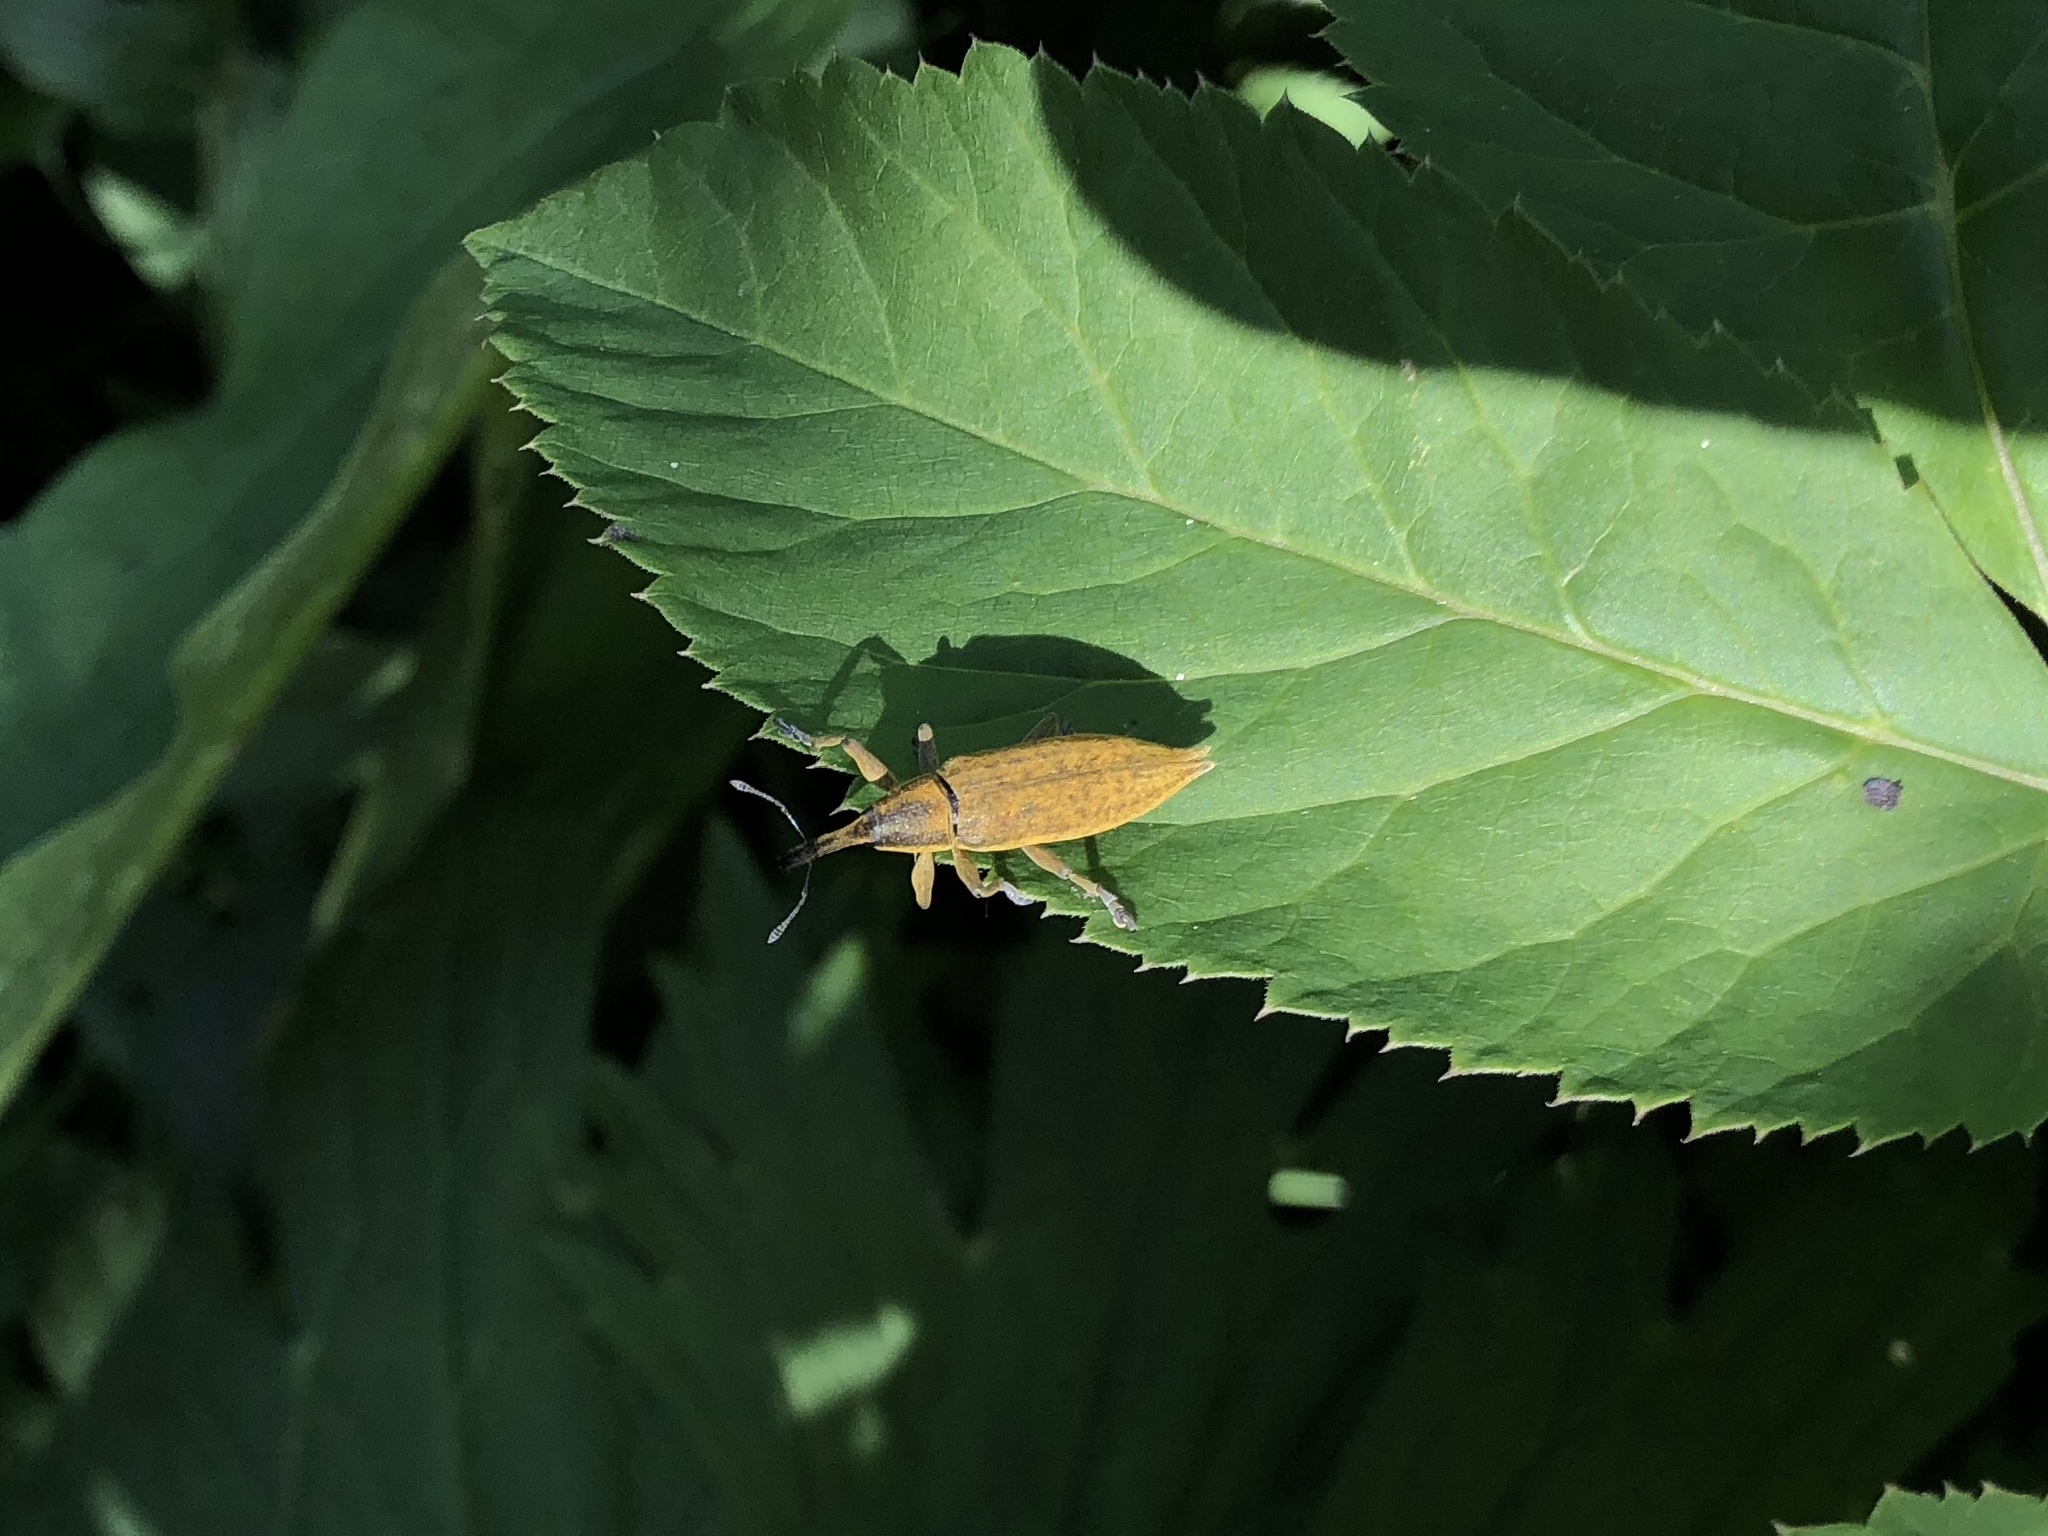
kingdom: Animalia
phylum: Arthropoda
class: Insecta
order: Coleoptera
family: Curculionidae
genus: Lixus
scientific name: Lixus iridis
